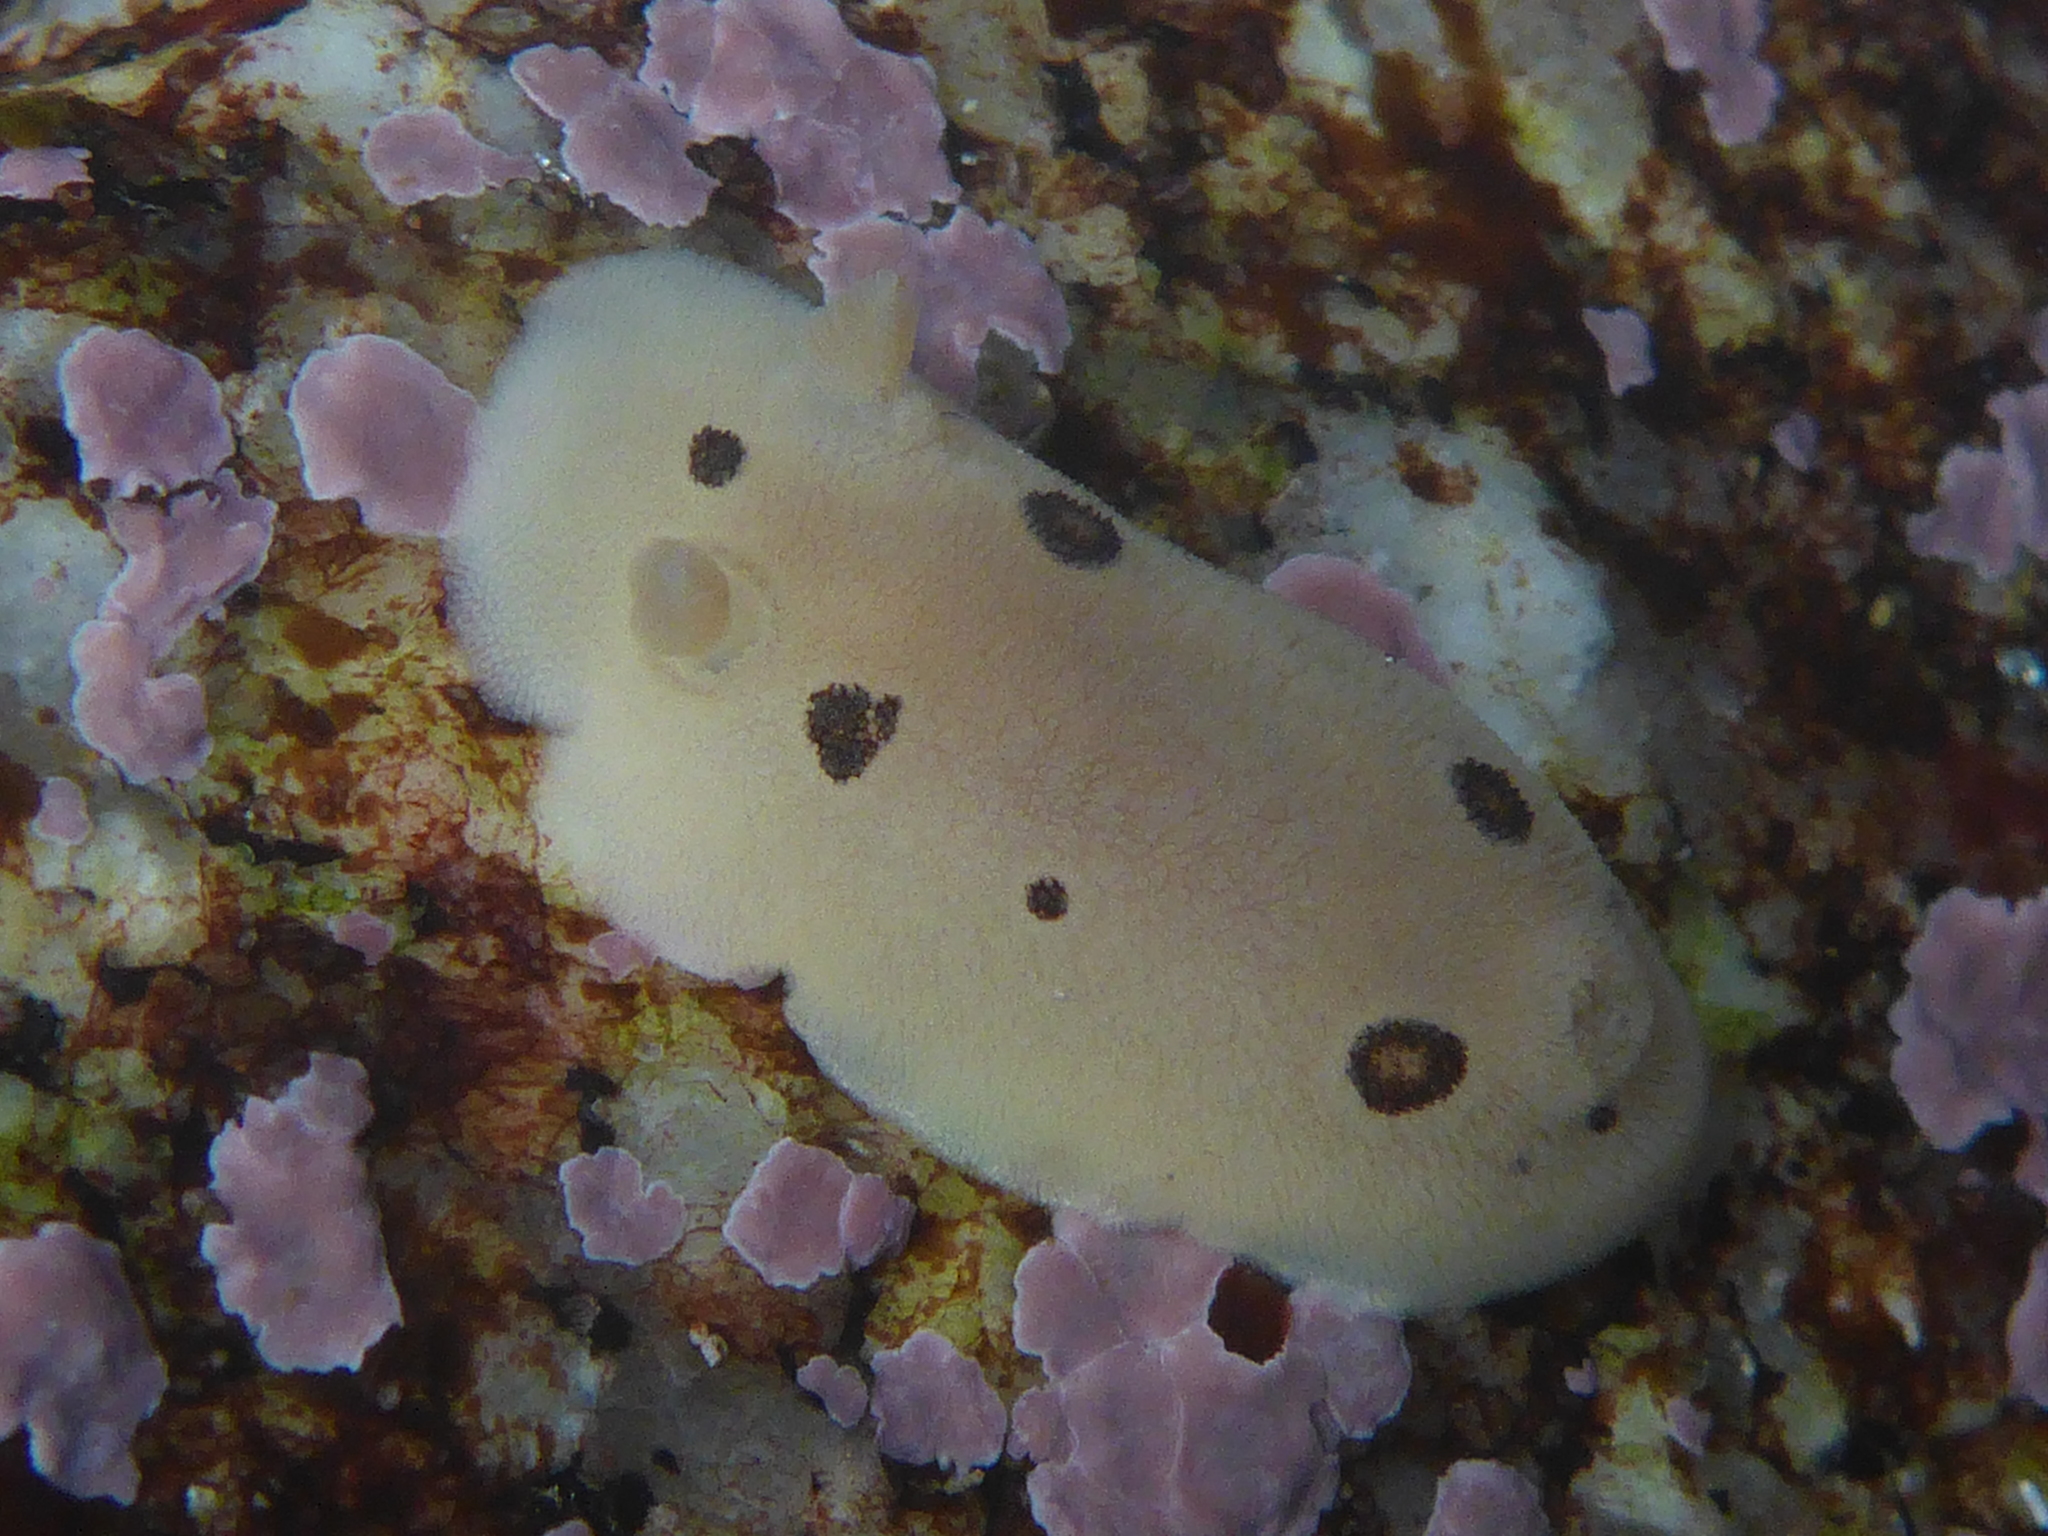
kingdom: Animalia
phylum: Mollusca
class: Gastropoda
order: Nudibranchia
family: Discodorididae
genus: Diaulula
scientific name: Diaulula sandiegensis
